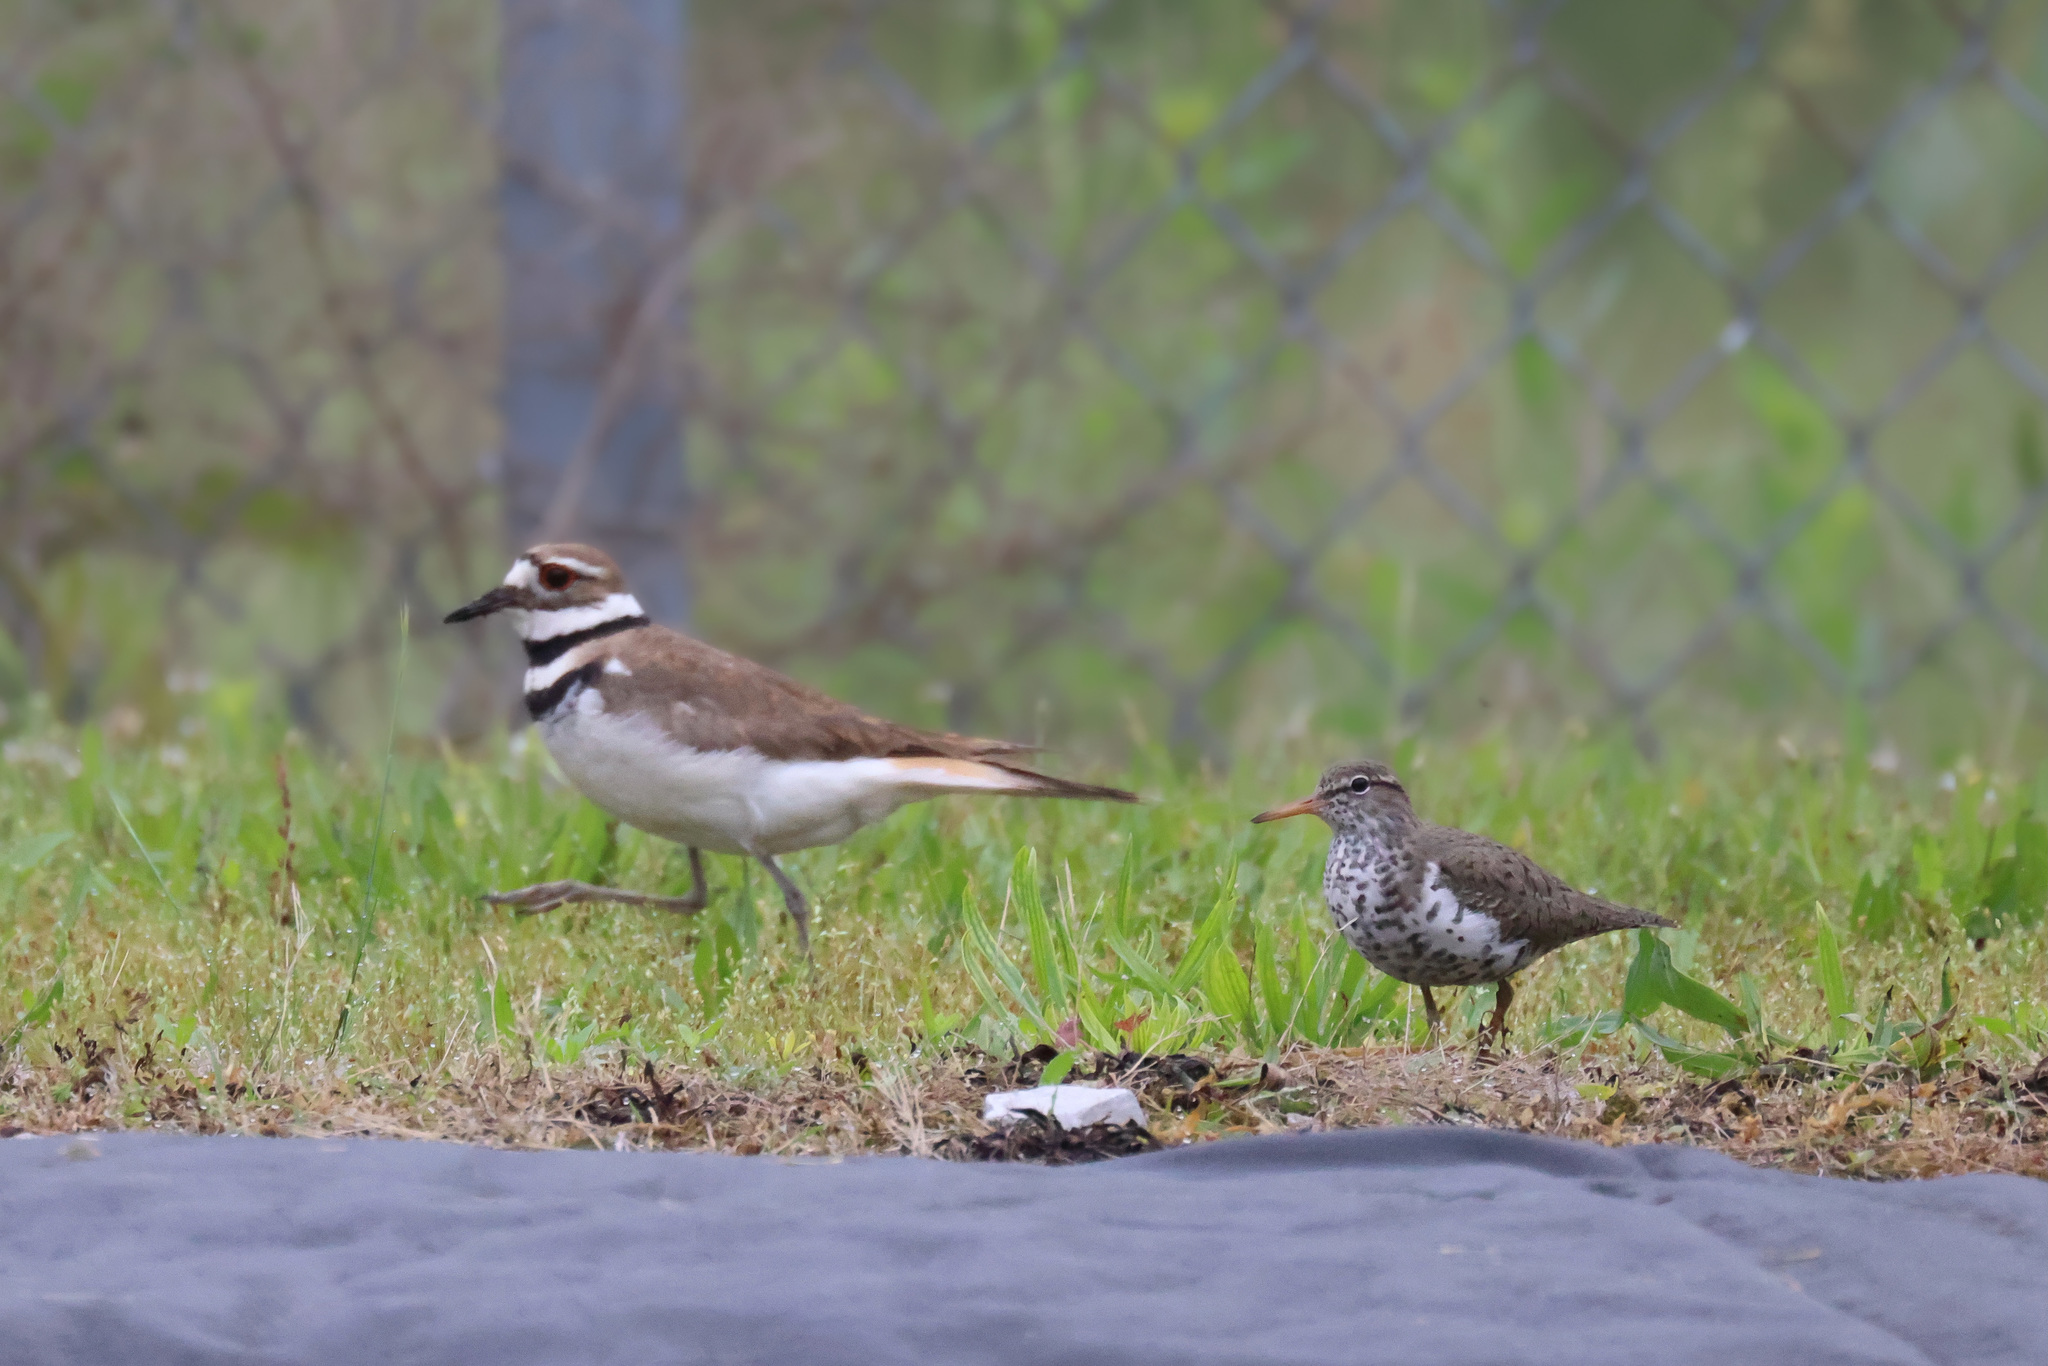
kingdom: Animalia
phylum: Chordata
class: Aves
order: Charadriiformes
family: Scolopacidae
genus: Actitis
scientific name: Actitis macularius
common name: Spotted sandpiper
